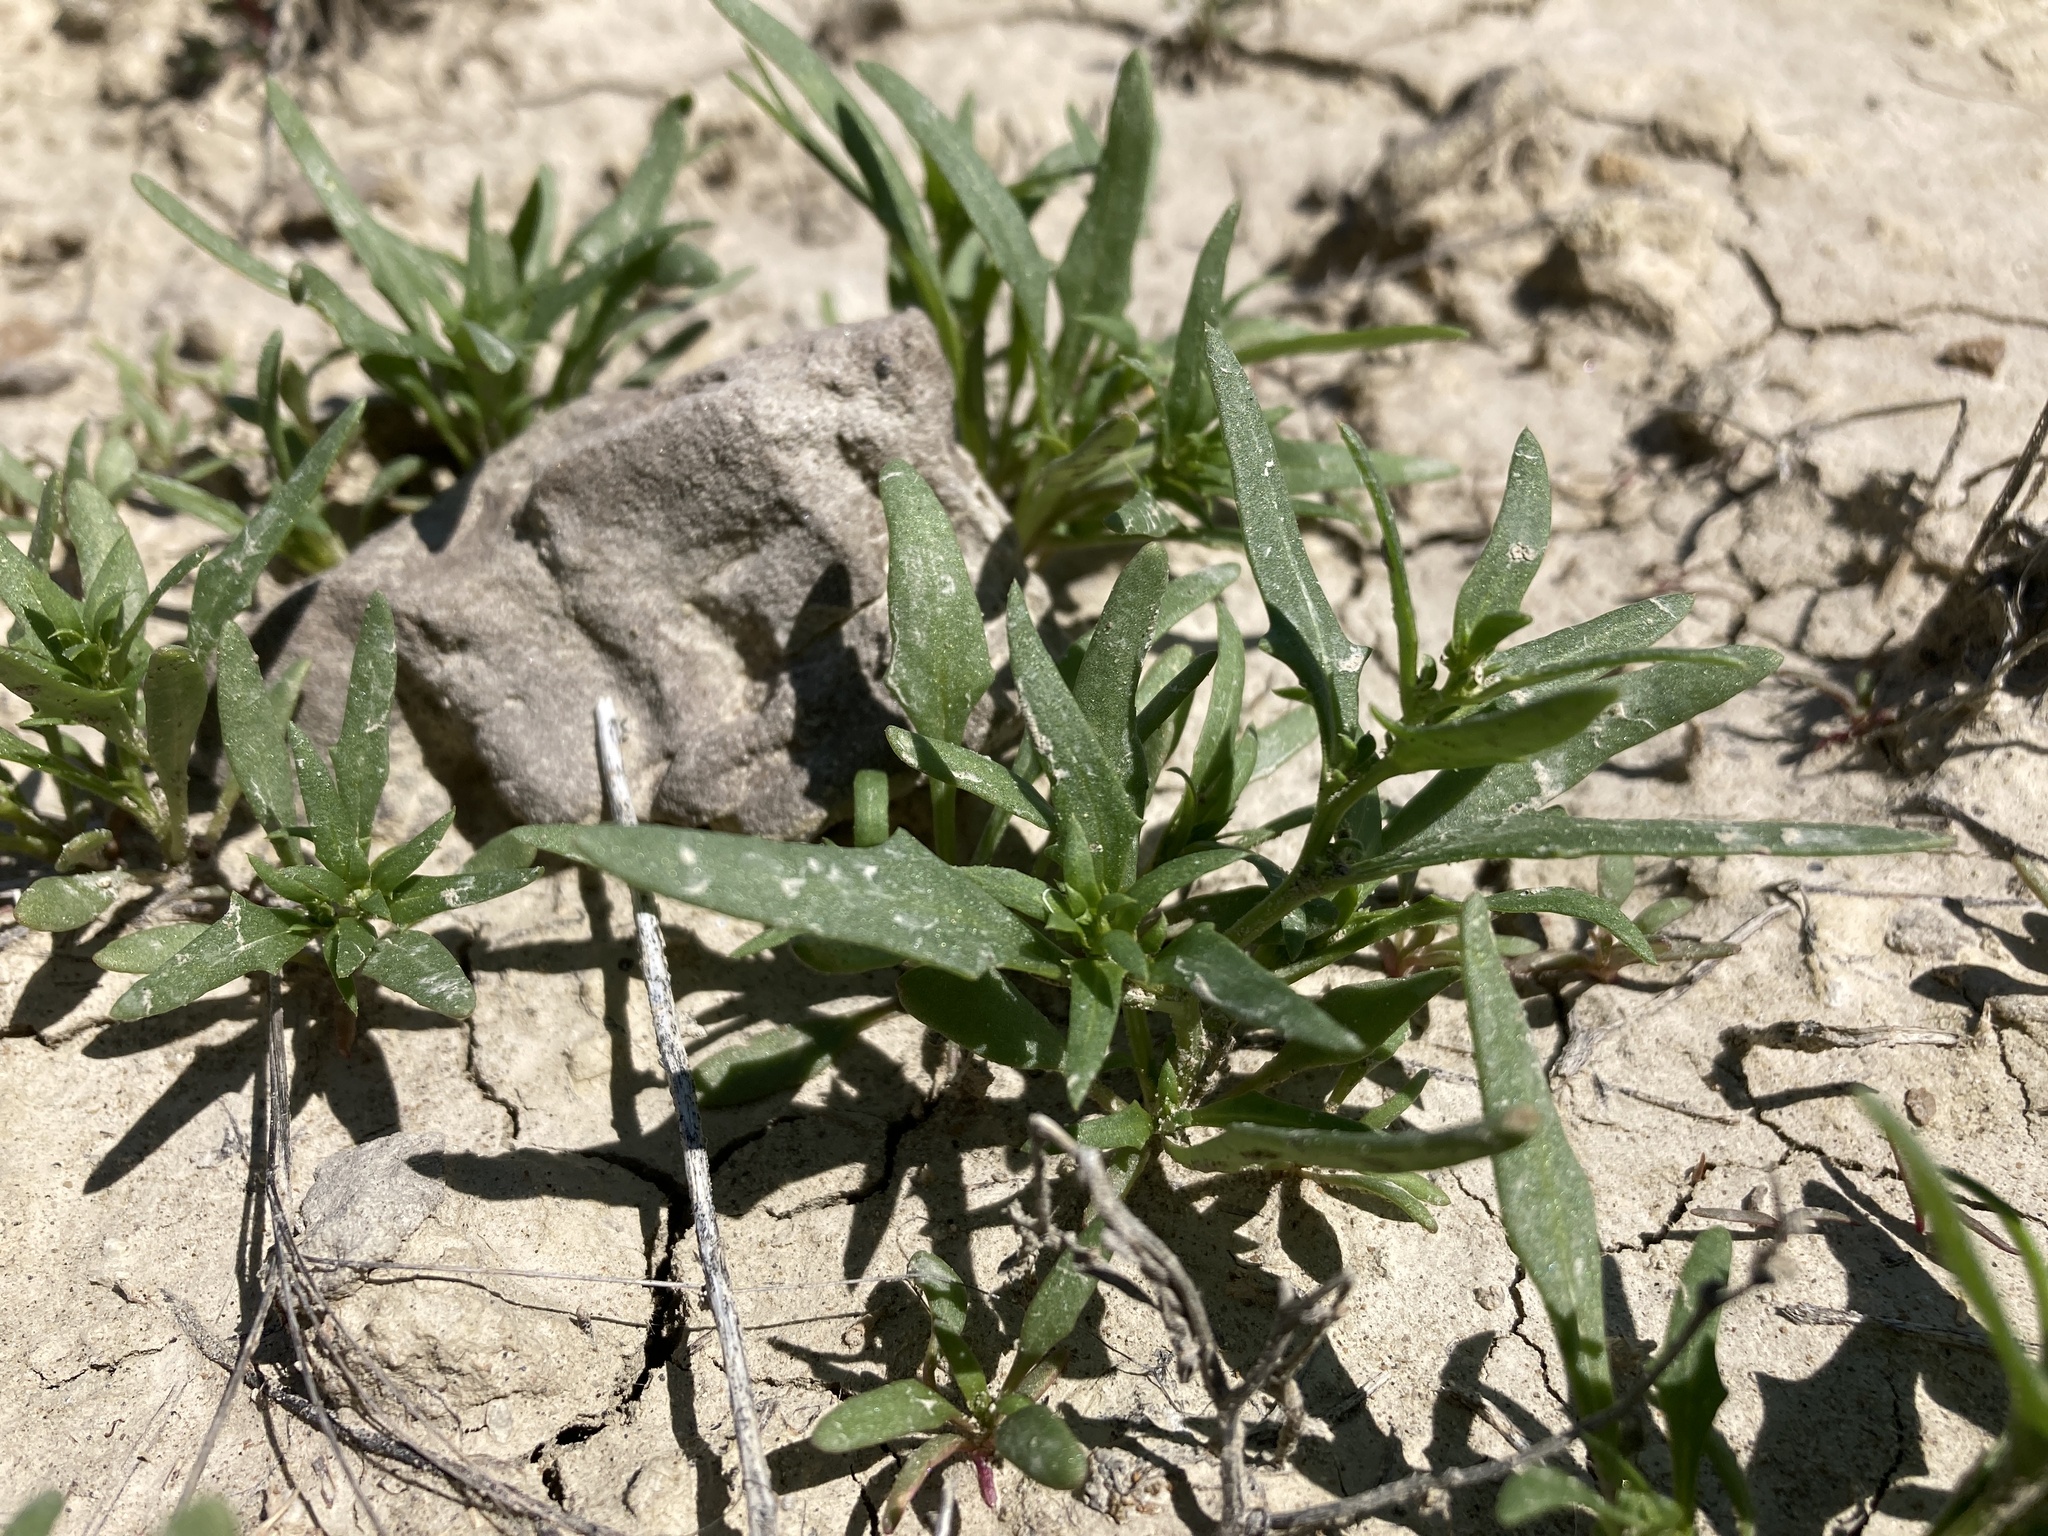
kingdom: Plantae
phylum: Tracheophyta
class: Magnoliopsida
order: Caryophyllales
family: Amaranthaceae
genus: Blitum
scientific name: Blitum nuttallianum
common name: Poverty-weed
